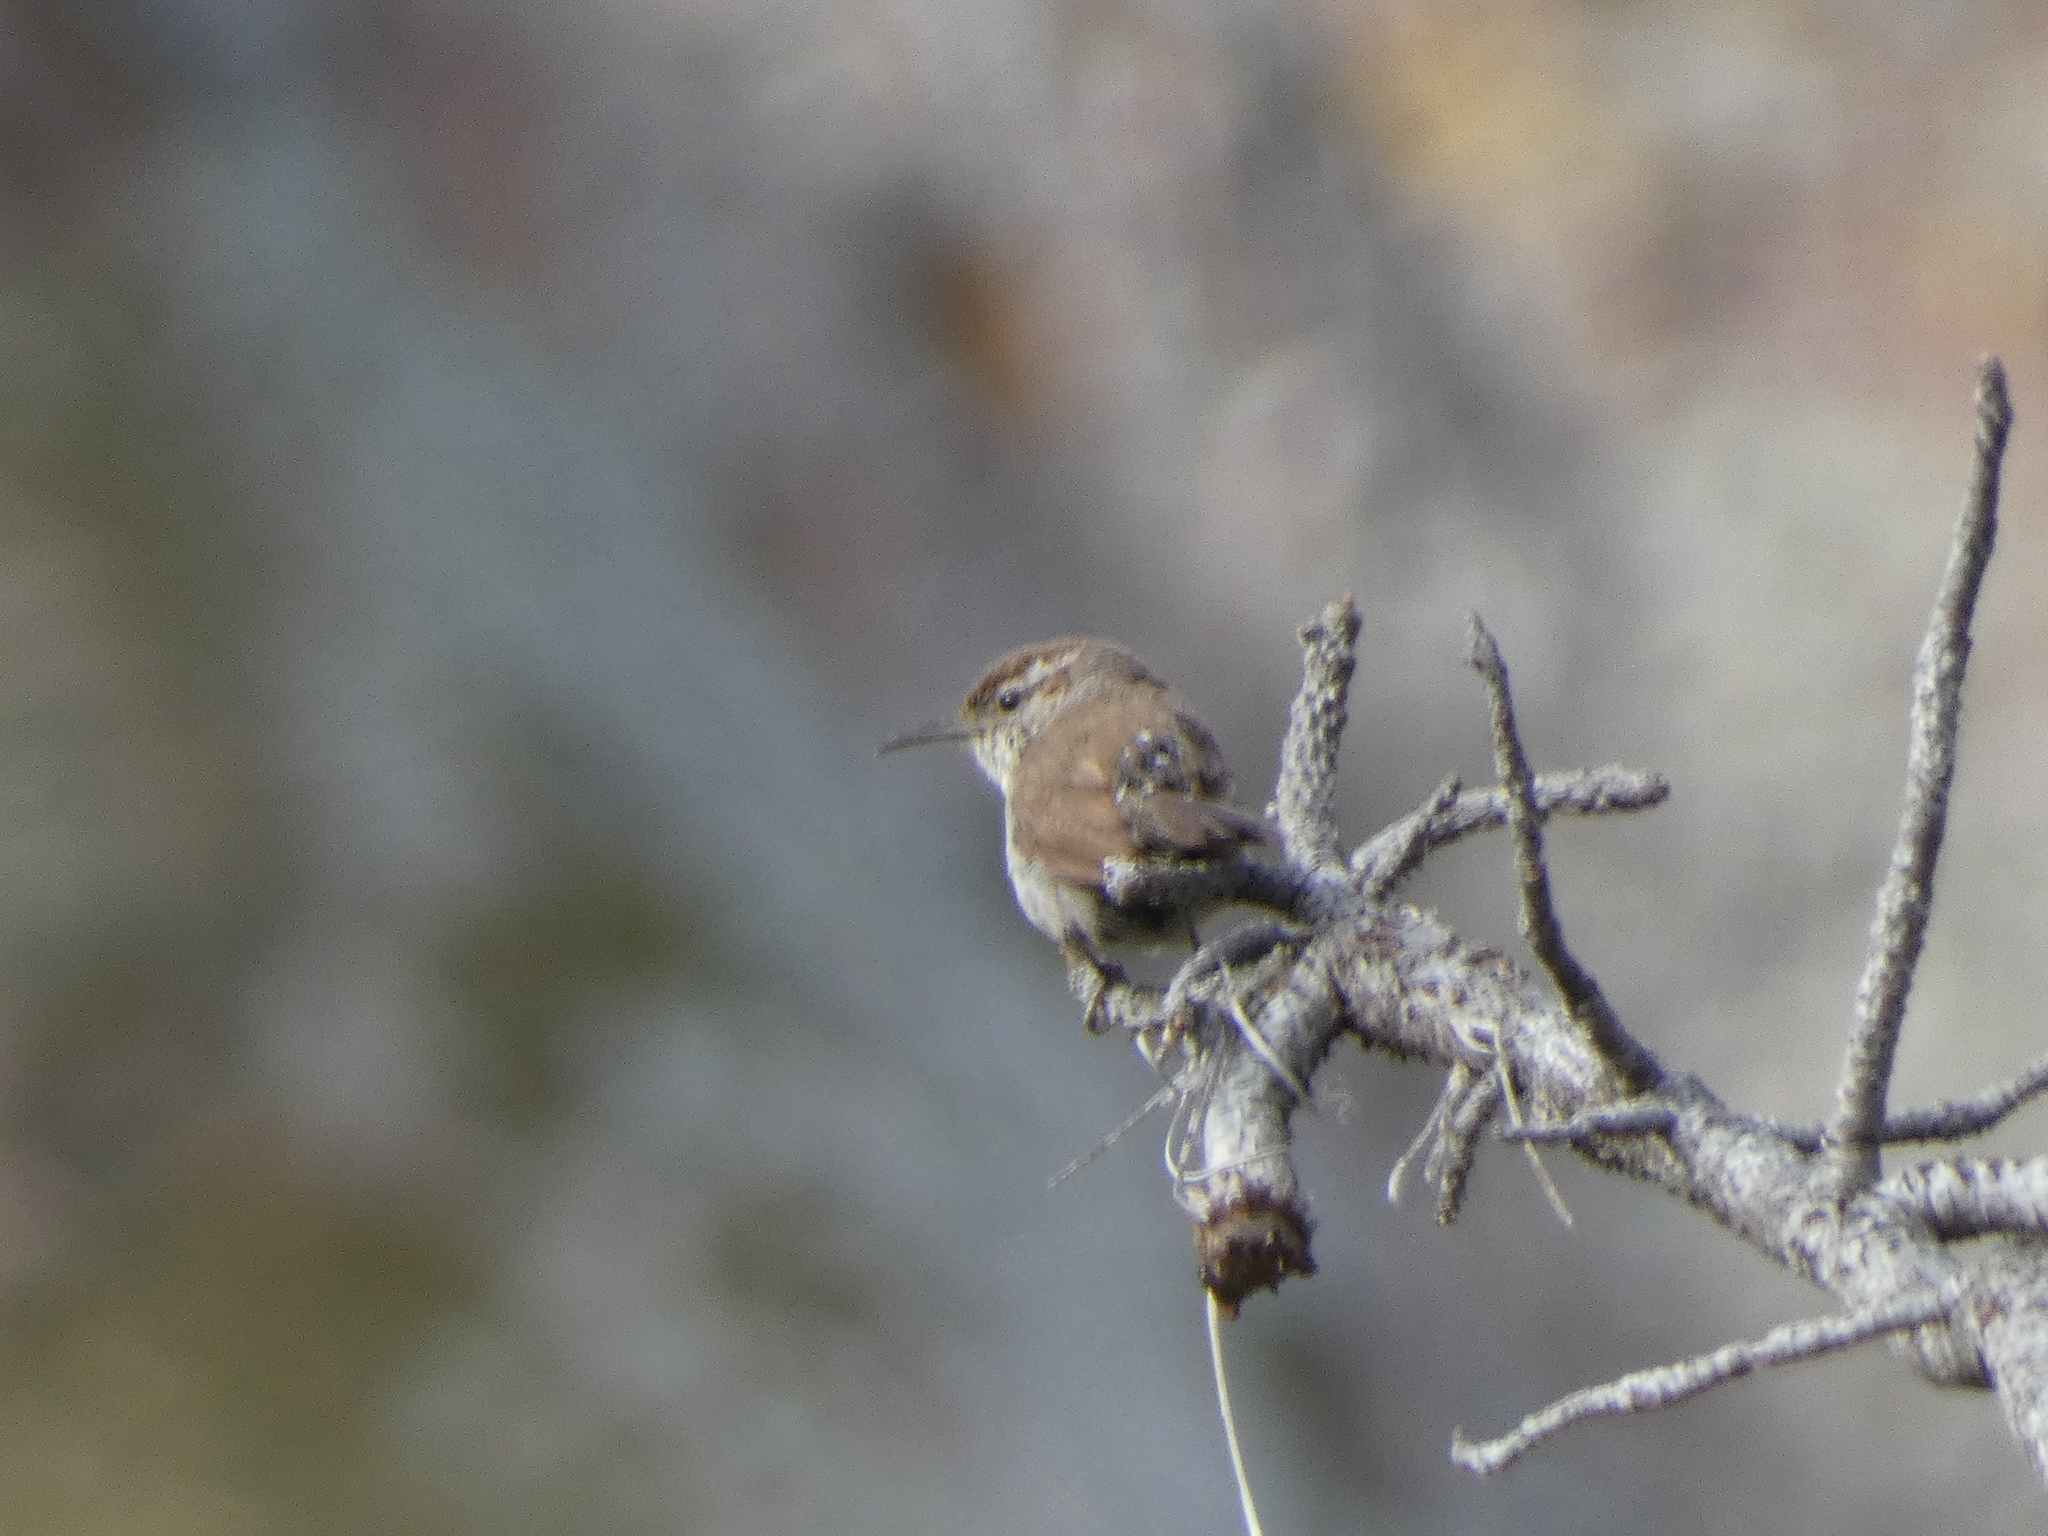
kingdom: Animalia
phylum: Chordata
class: Aves
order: Passeriformes
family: Troglodytidae
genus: Thryomanes
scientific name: Thryomanes bewickii
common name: Bewick's wren
